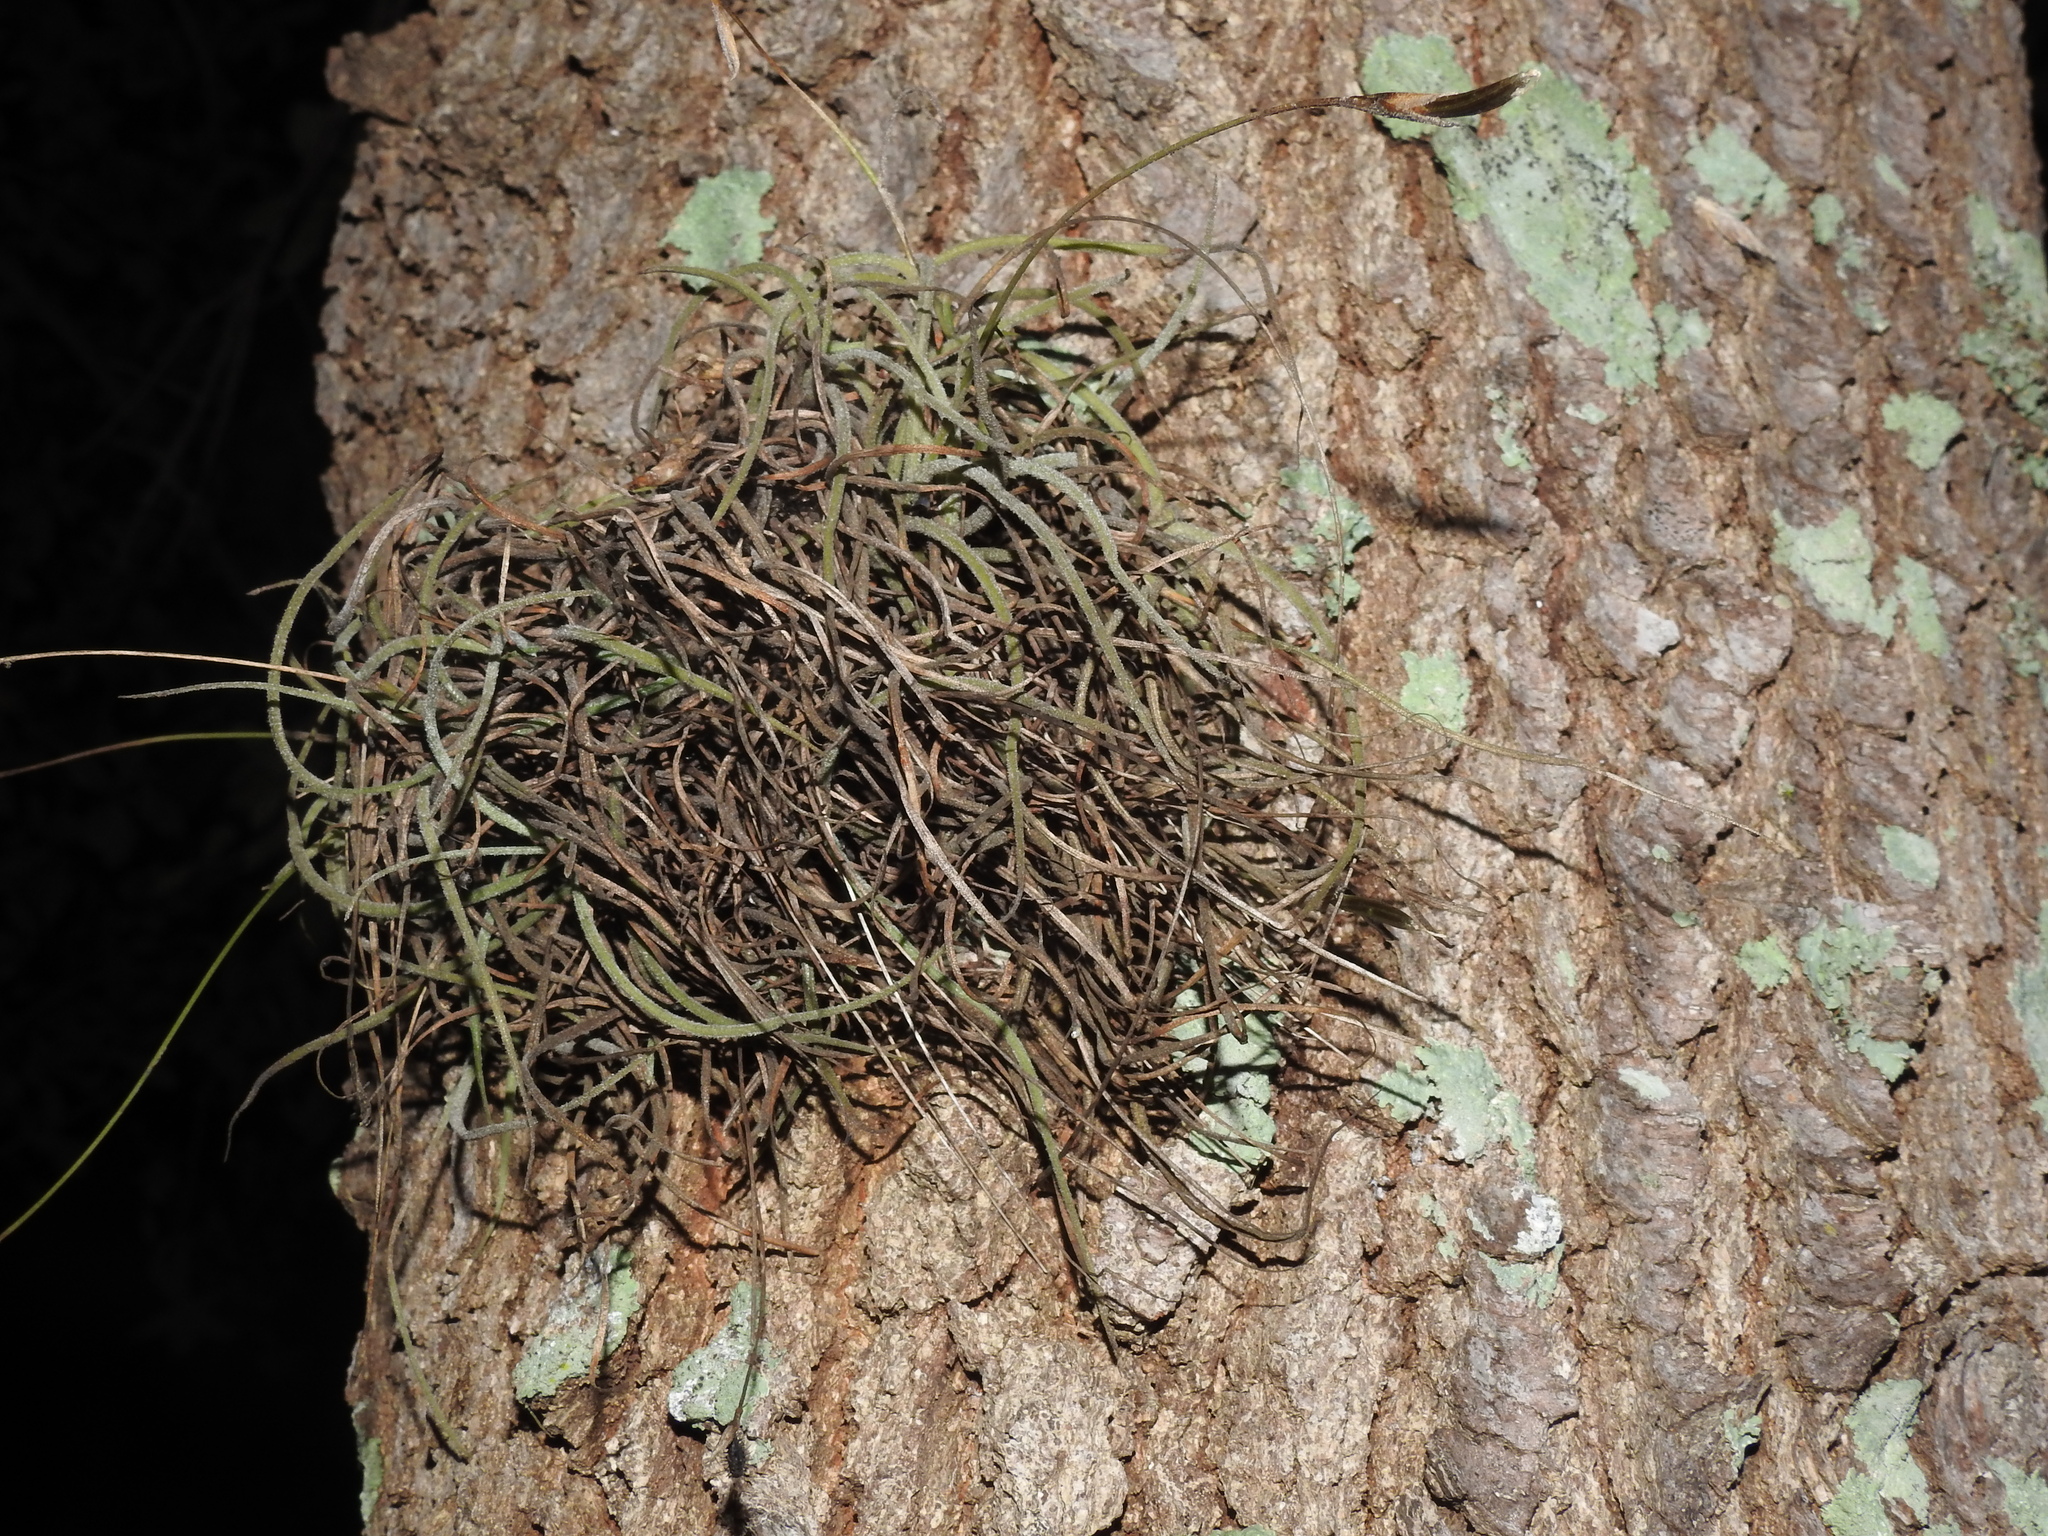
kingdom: Plantae
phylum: Tracheophyta
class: Liliopsida
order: Poales
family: Bromeliaceae
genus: Tillandsia
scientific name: Tillandsia recurvata
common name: Small ballmoss
